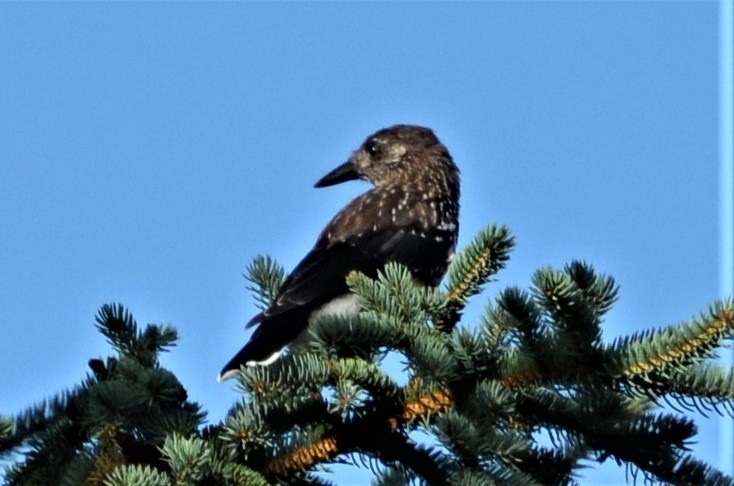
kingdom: Animalia
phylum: Chordata
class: Aves
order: Passeriformes
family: Corvidae
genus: Nucifraga
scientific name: Nucifraga caryocatactes
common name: Spotted nutcracker
